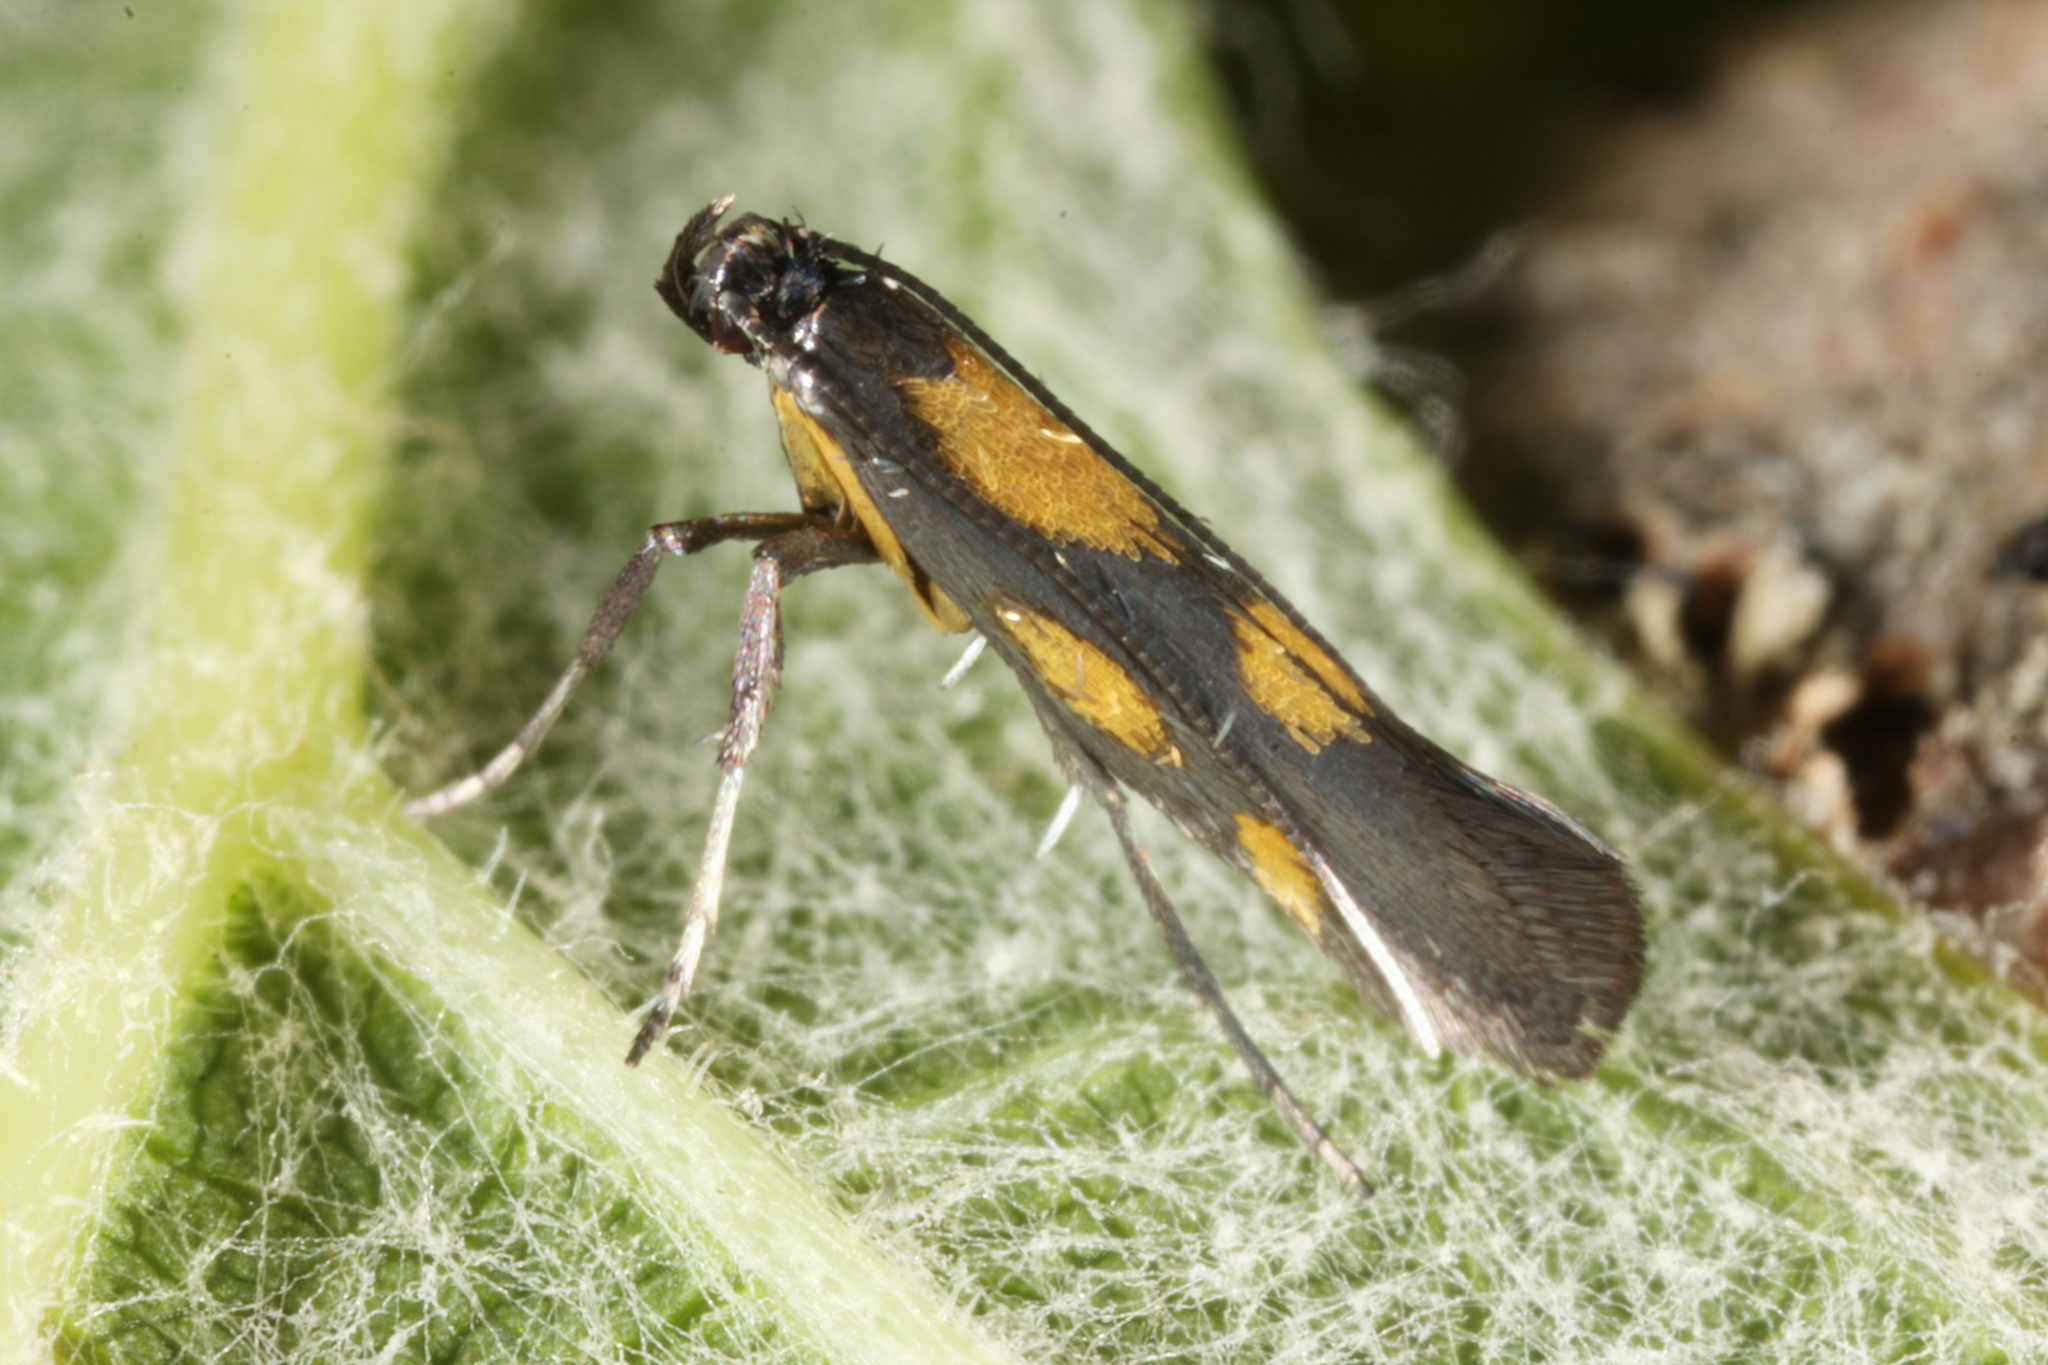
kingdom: Animalia
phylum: Arthropoda
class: Insecta
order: Lepidoptera
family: Gracillariidae
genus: Euspilapteryx
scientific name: Euspilapteryx auroguttella
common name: Gold-dot slender
